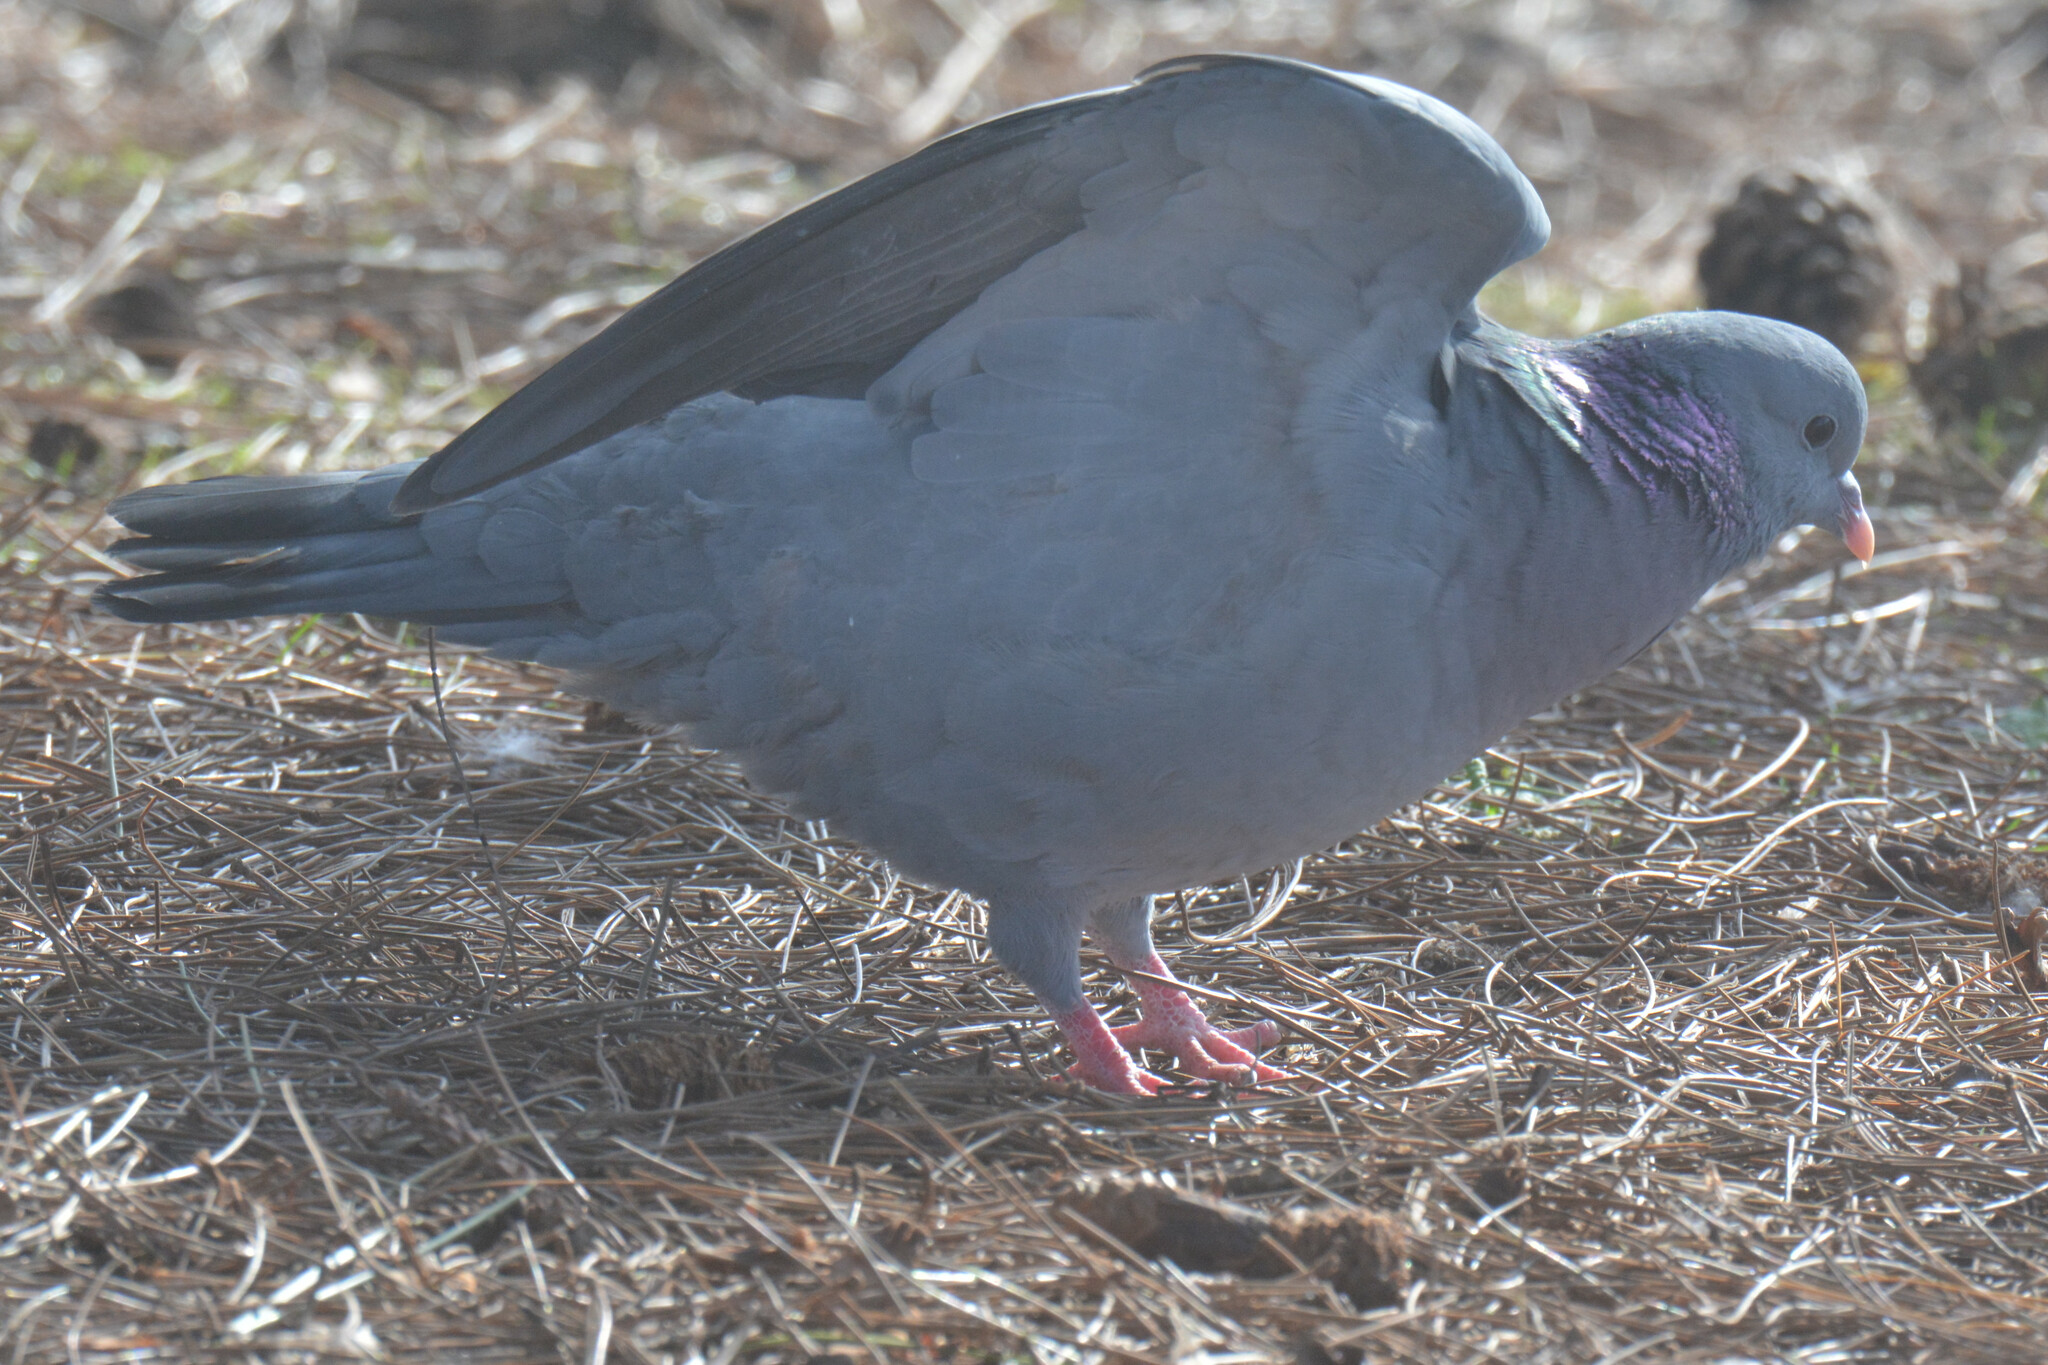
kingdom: Animalia
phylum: Chordata
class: Aves
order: Columbiformes
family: Columbidae
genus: Columba
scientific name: Columba oenas
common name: Stock dove
